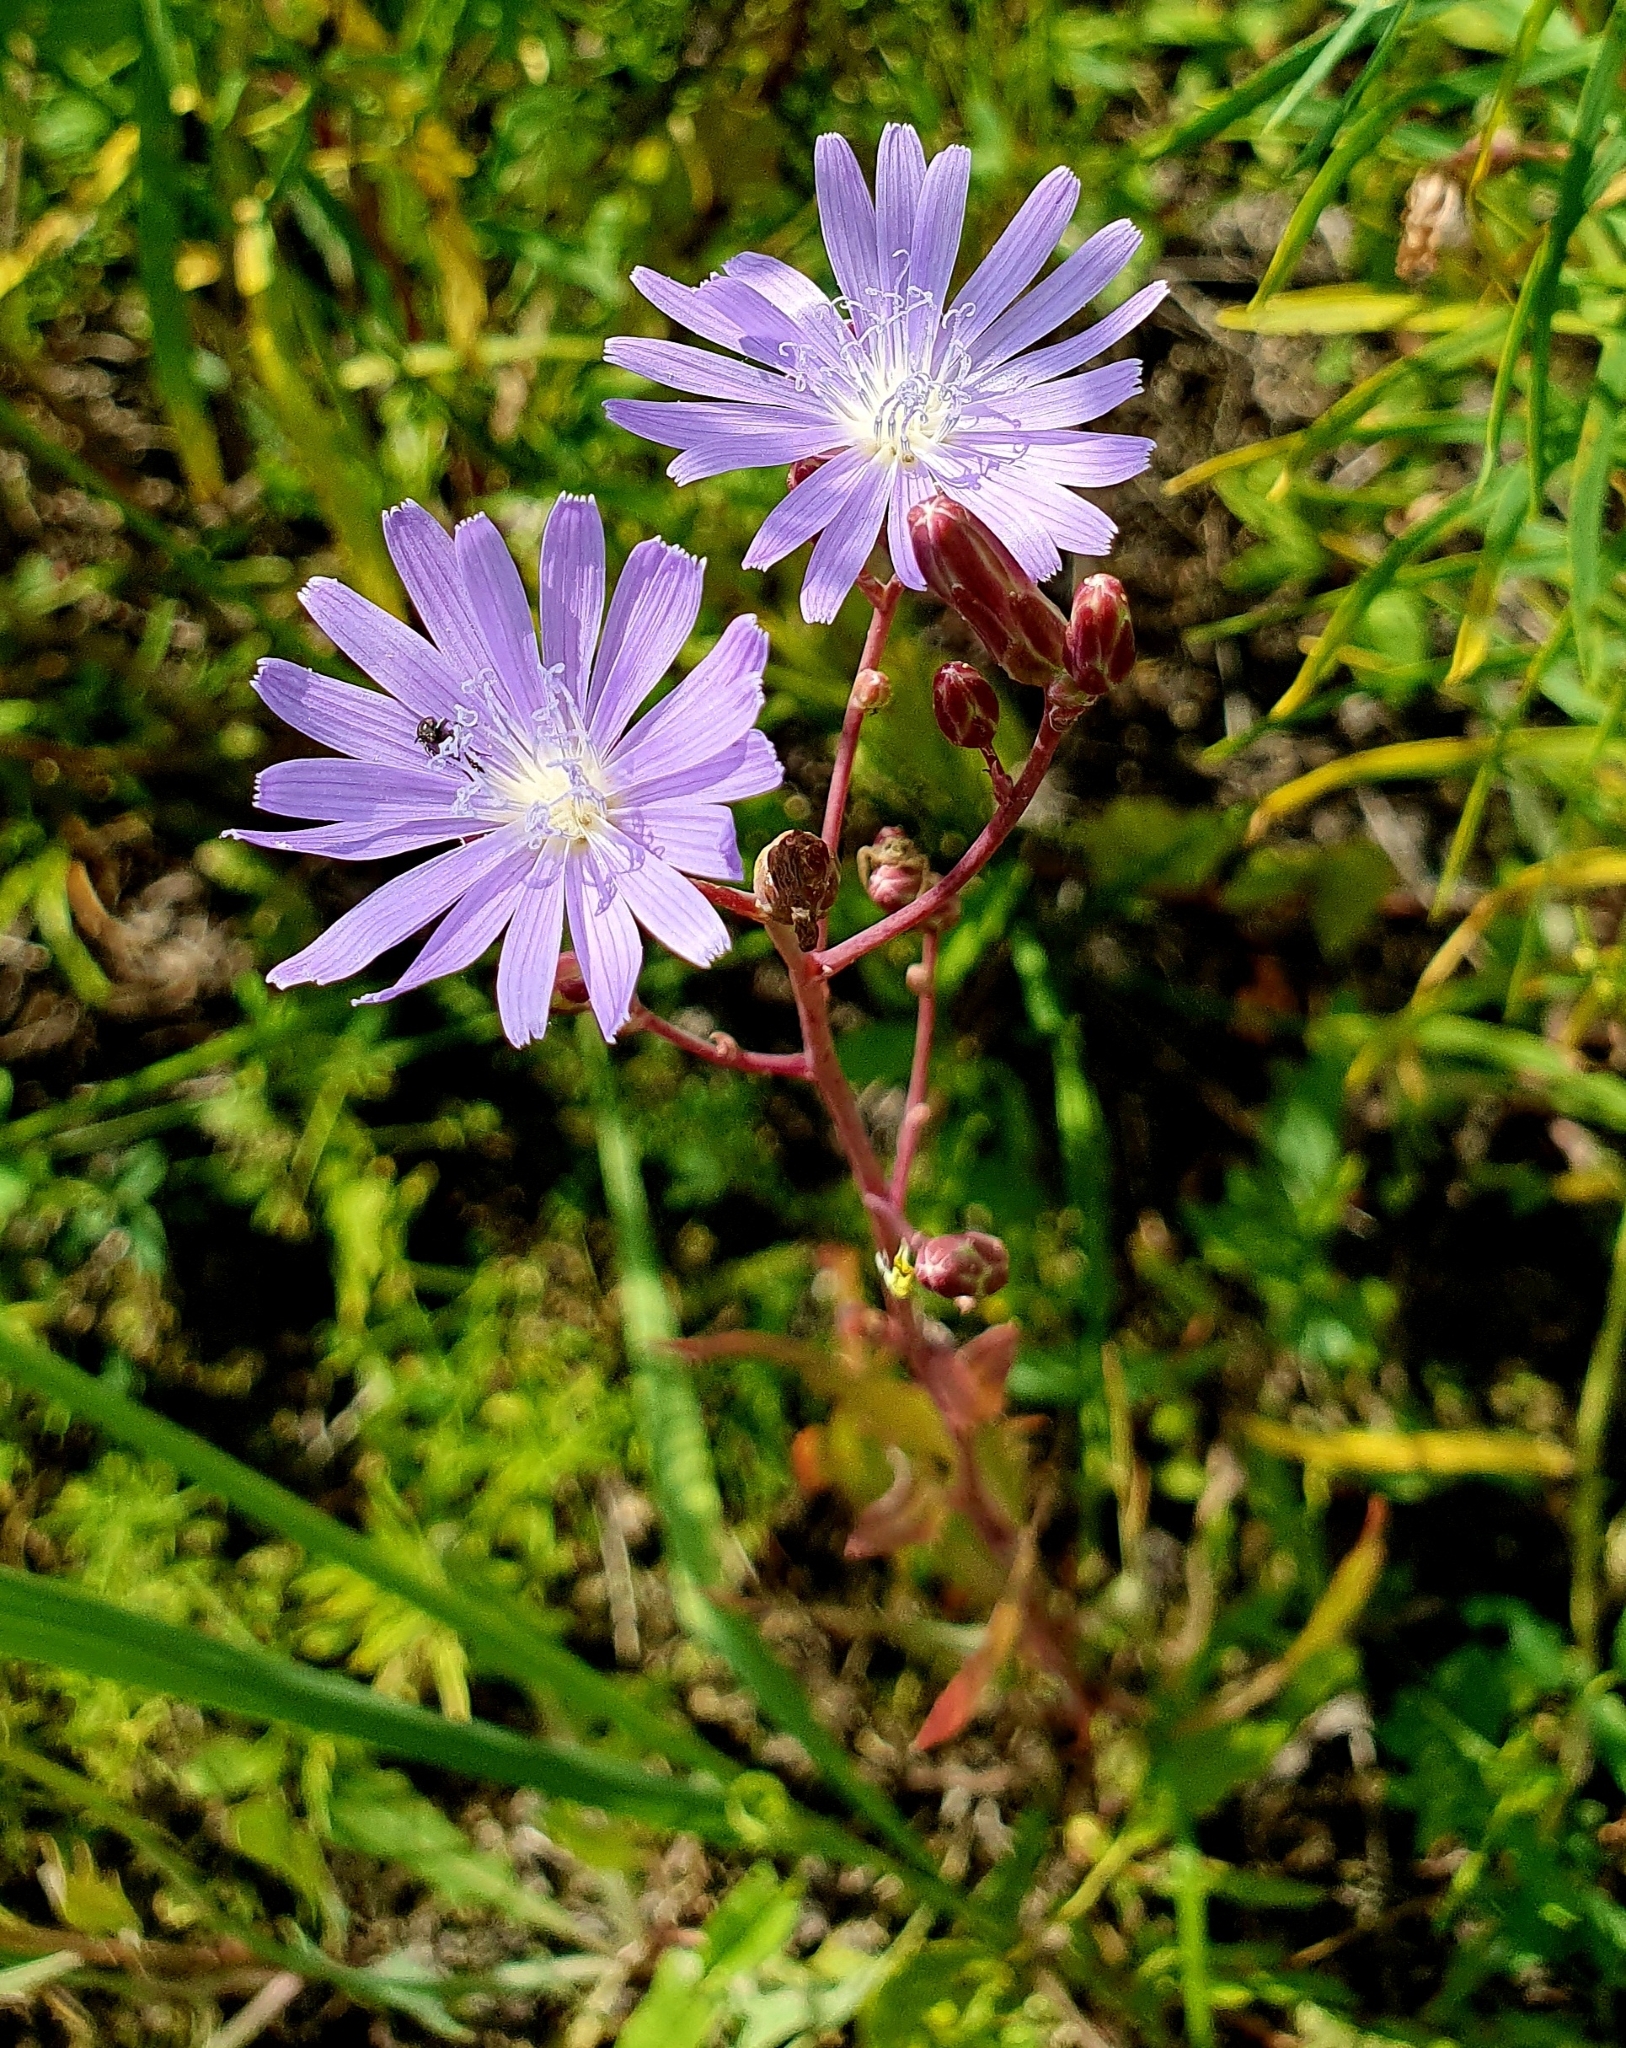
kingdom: Plantae
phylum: Tracheophyta
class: Magnoliopsida
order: Asterales
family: Asteraceae
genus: Lactuca
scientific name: Lactuca tatarica
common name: Blue lettuce
